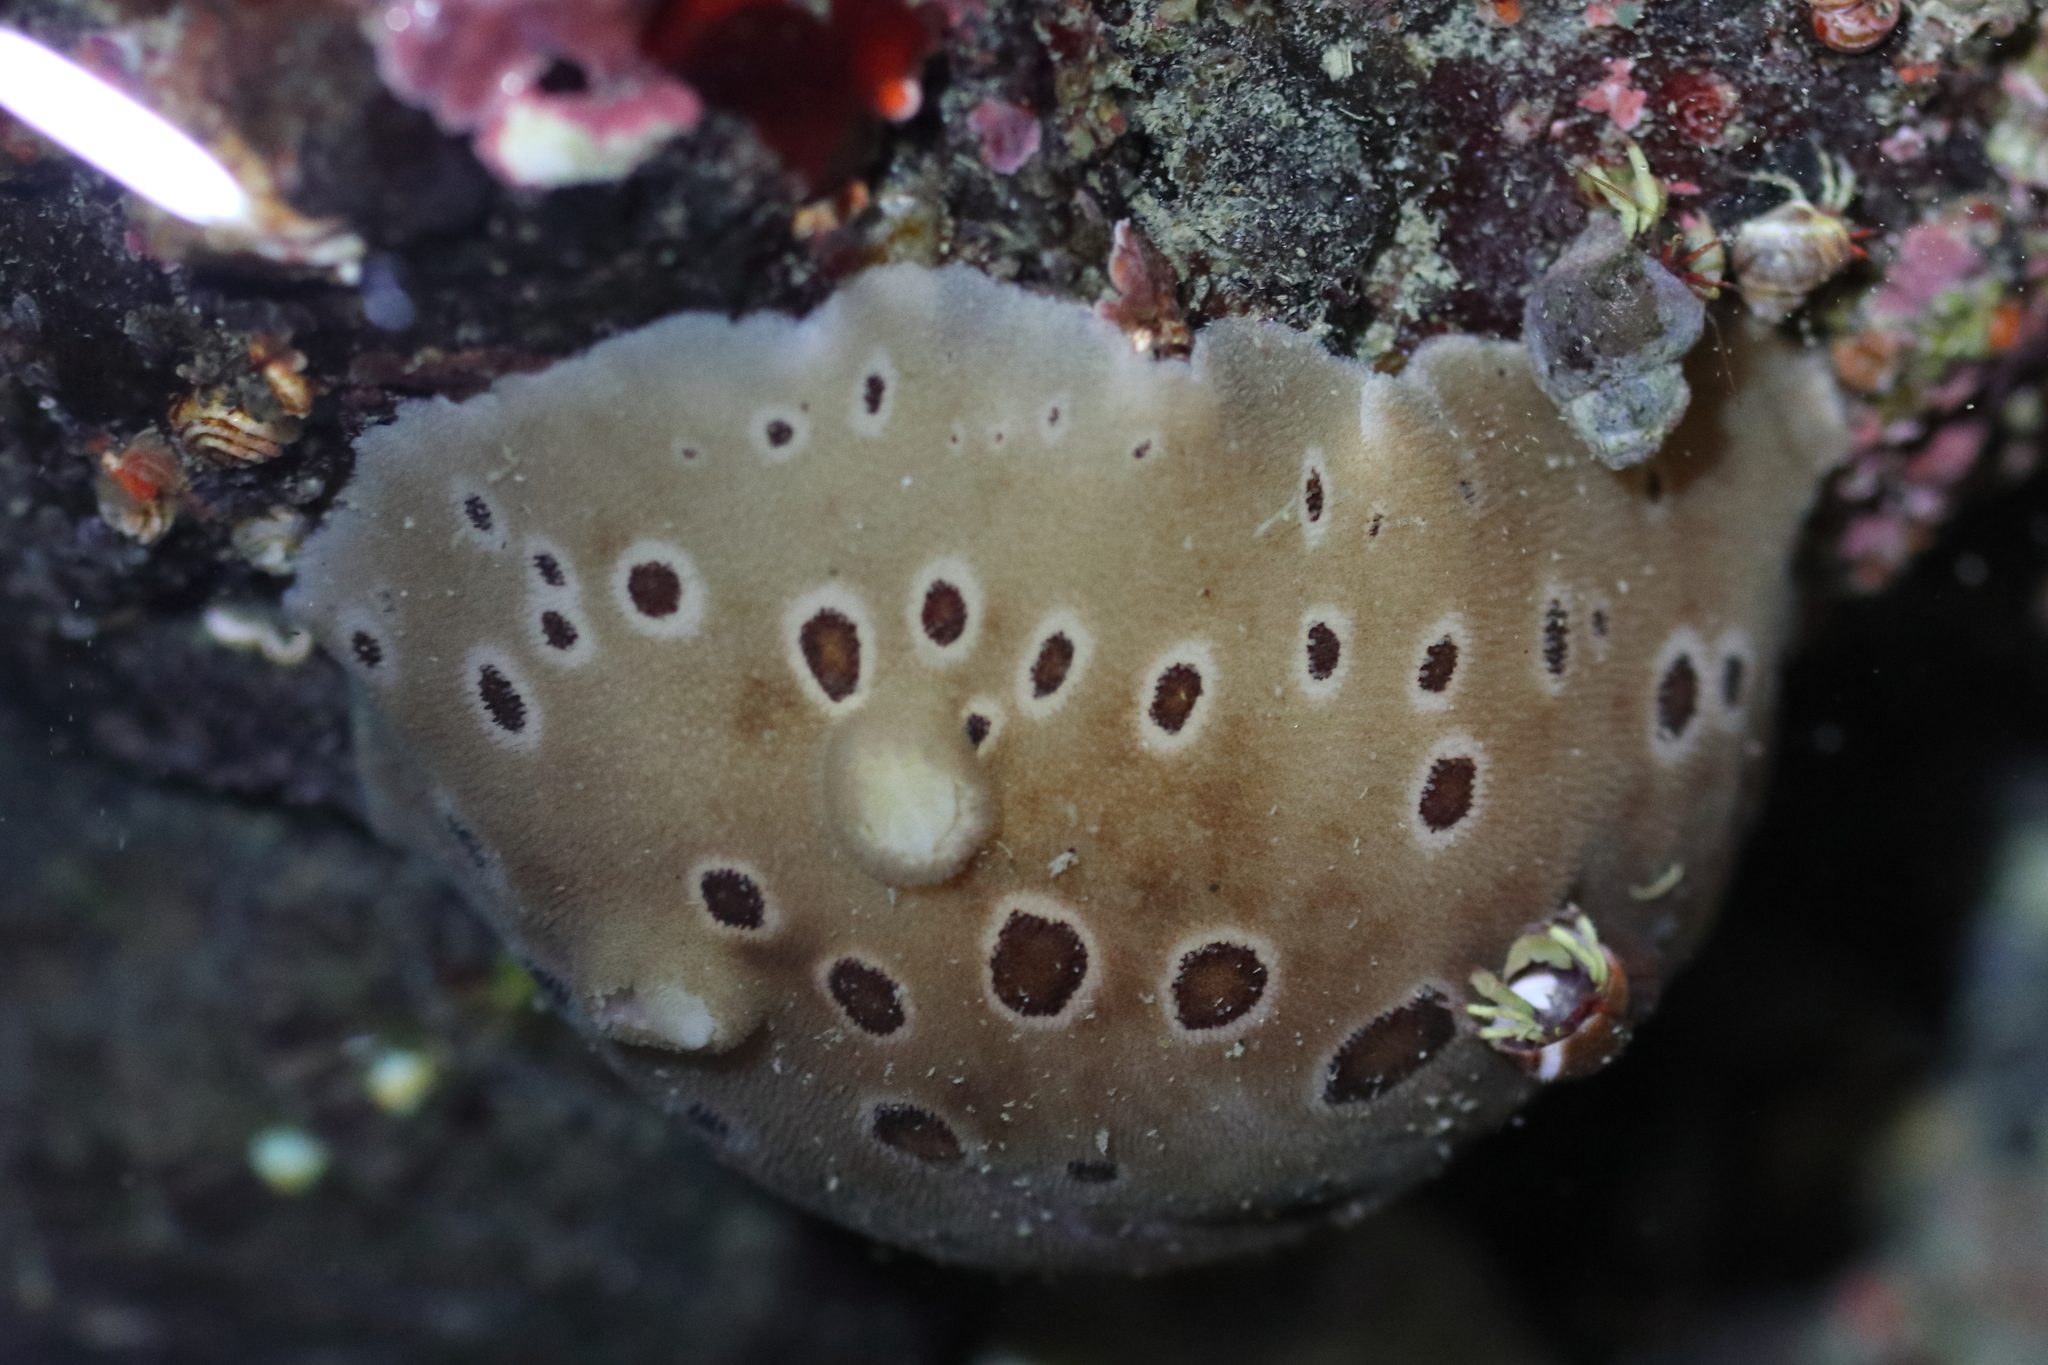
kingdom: Animalia
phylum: Mollusca
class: Gastropoda
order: Nudibranchia
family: Discodorididae
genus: Diaulula
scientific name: Diaulula odonoghuei
